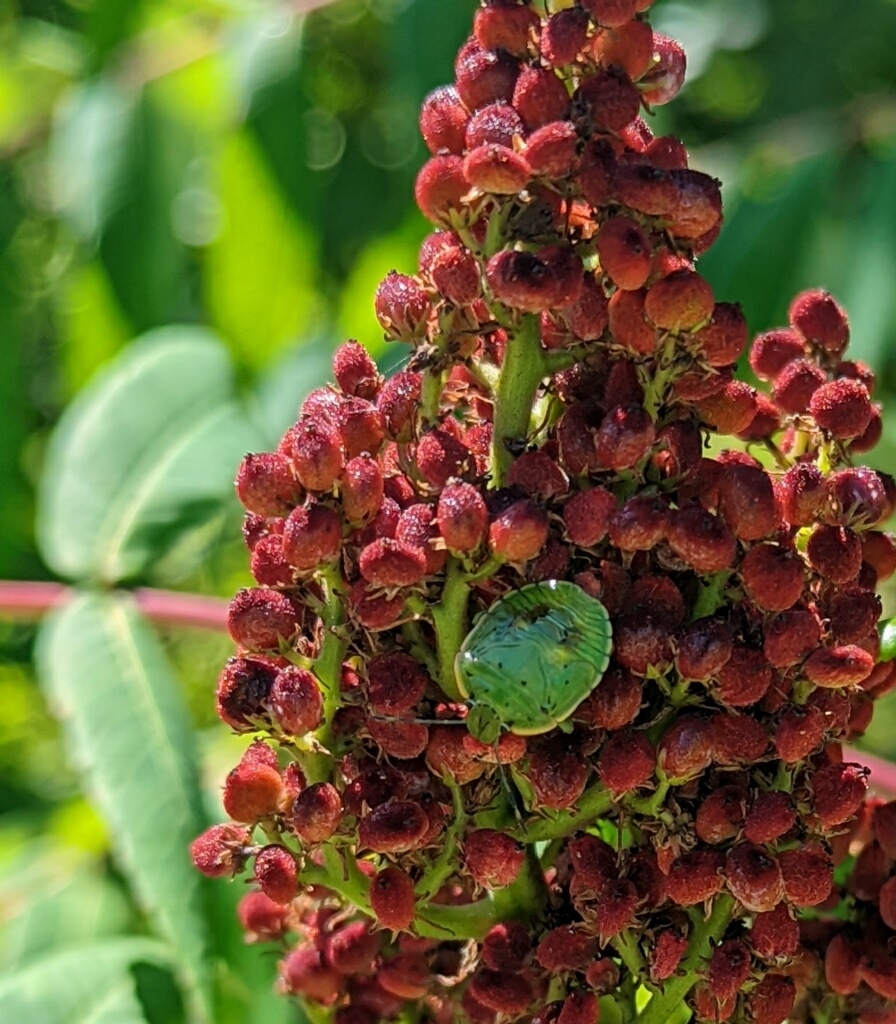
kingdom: Animalia
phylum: Arthropoda
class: Insecta
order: Hemiptera
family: Pentatomidae
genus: Chinavia
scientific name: Chinavia hilaris
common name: Green stink bug
